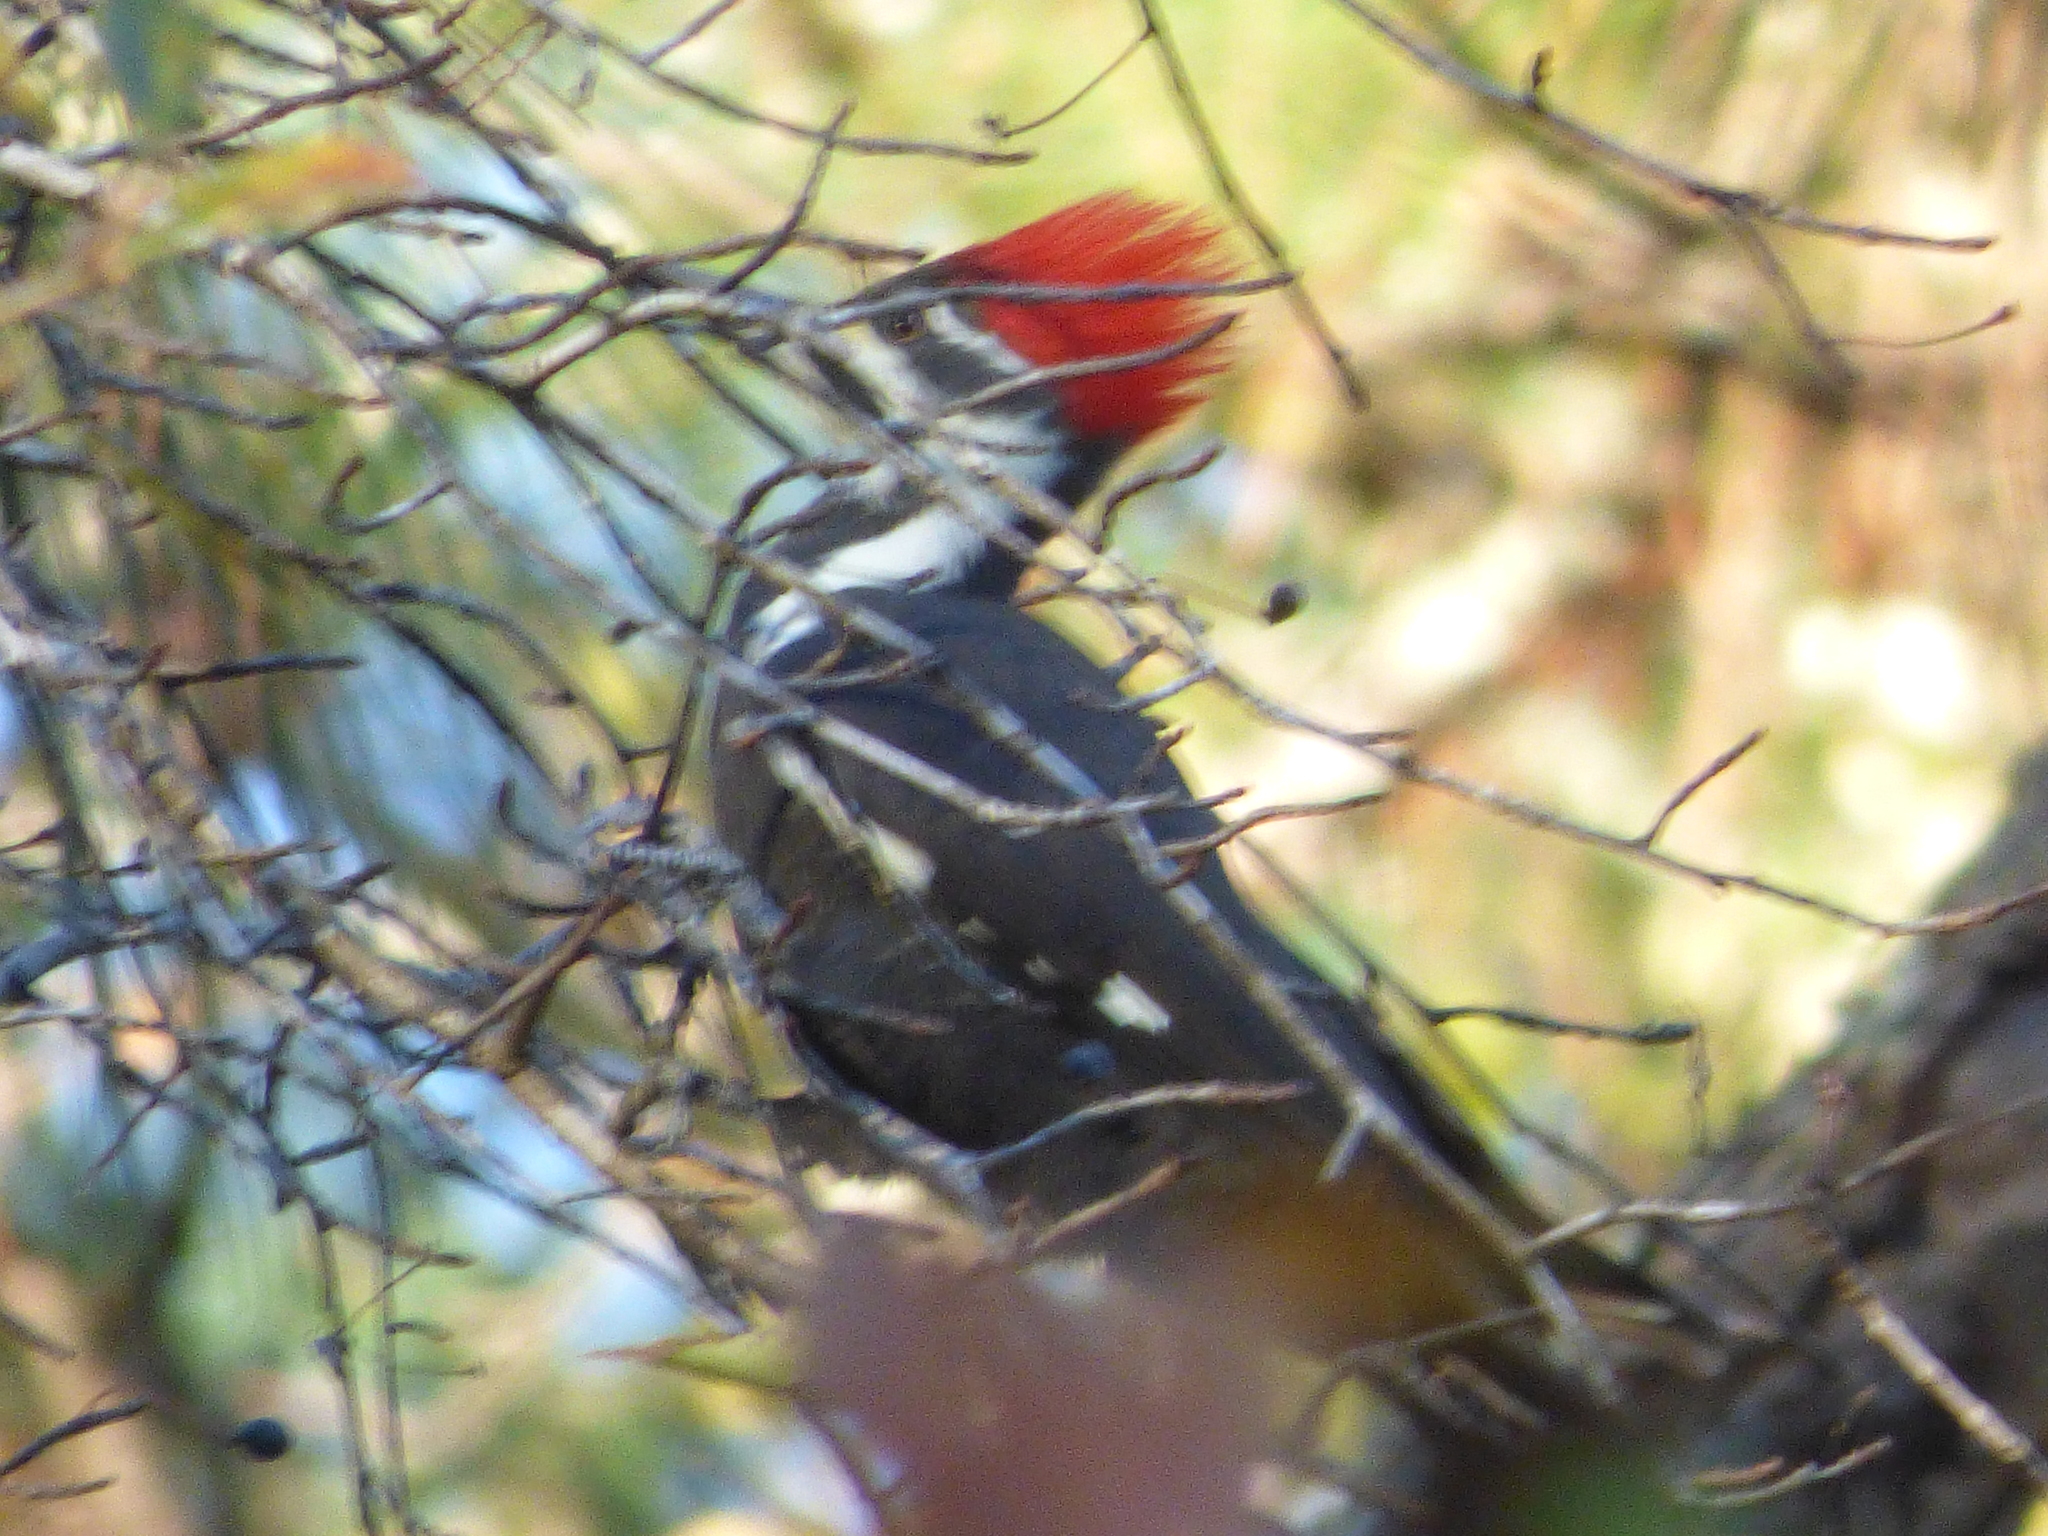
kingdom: Animalia
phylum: Chordata
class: Aves
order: Piciformes
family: Picidae
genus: Dryocopus
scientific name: Dryocopus pileatus
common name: Pileated woodpecker
